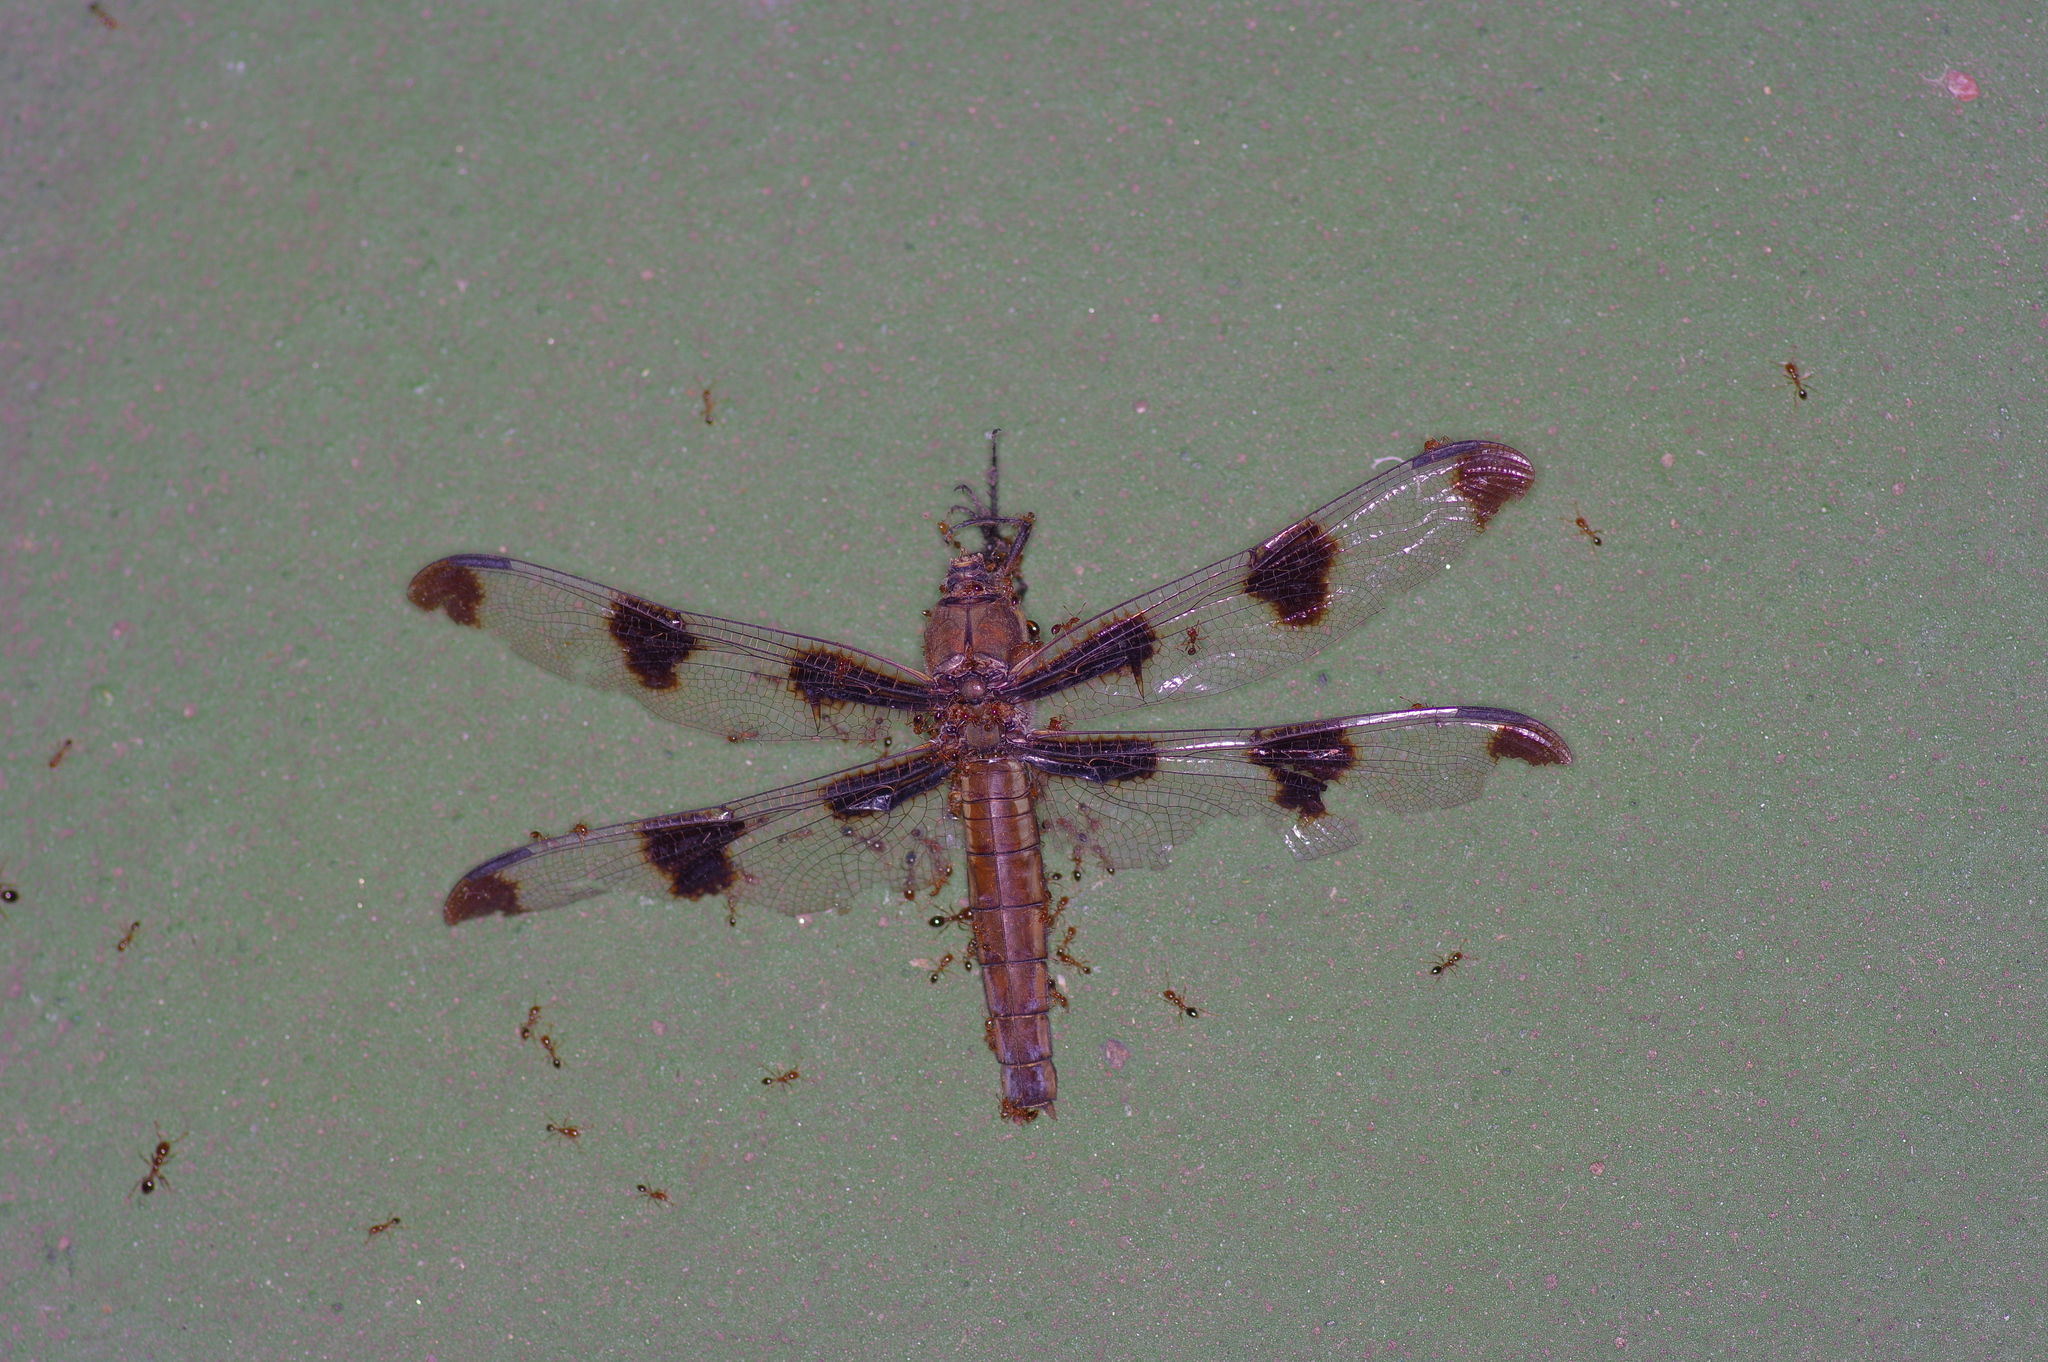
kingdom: Animalia
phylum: Arthropoda
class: Insecta
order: Odonata
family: Libellulidae
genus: Libellula
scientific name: Libellula pulchella
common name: Twelve-spotted skimmer
